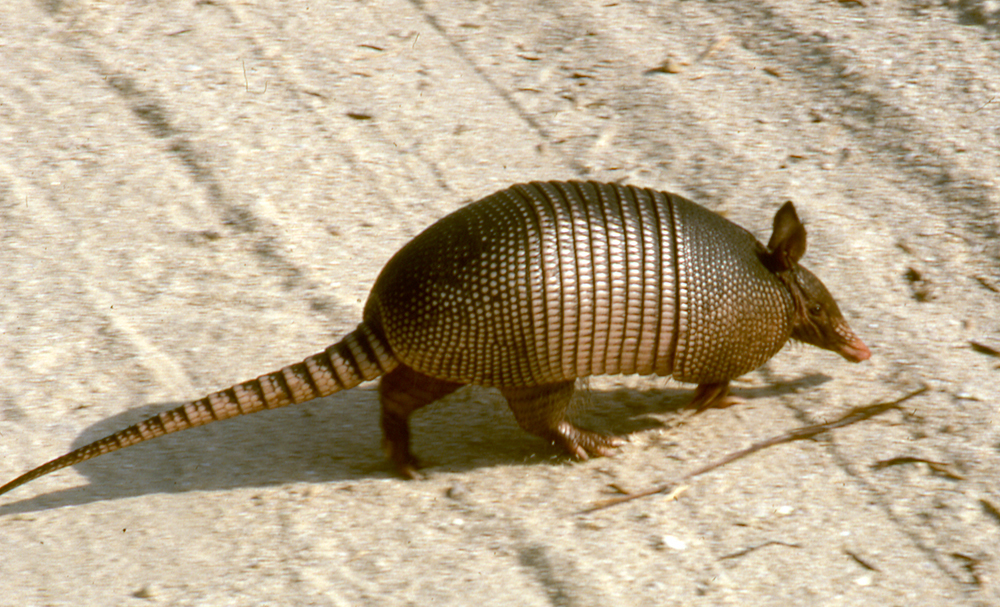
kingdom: Animalia
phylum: Chordata
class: Mammalia
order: Cingulata
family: Dasypodidae
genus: Dasypus
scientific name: Dasypus novemcinctus
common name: Nine-banded armadillo
